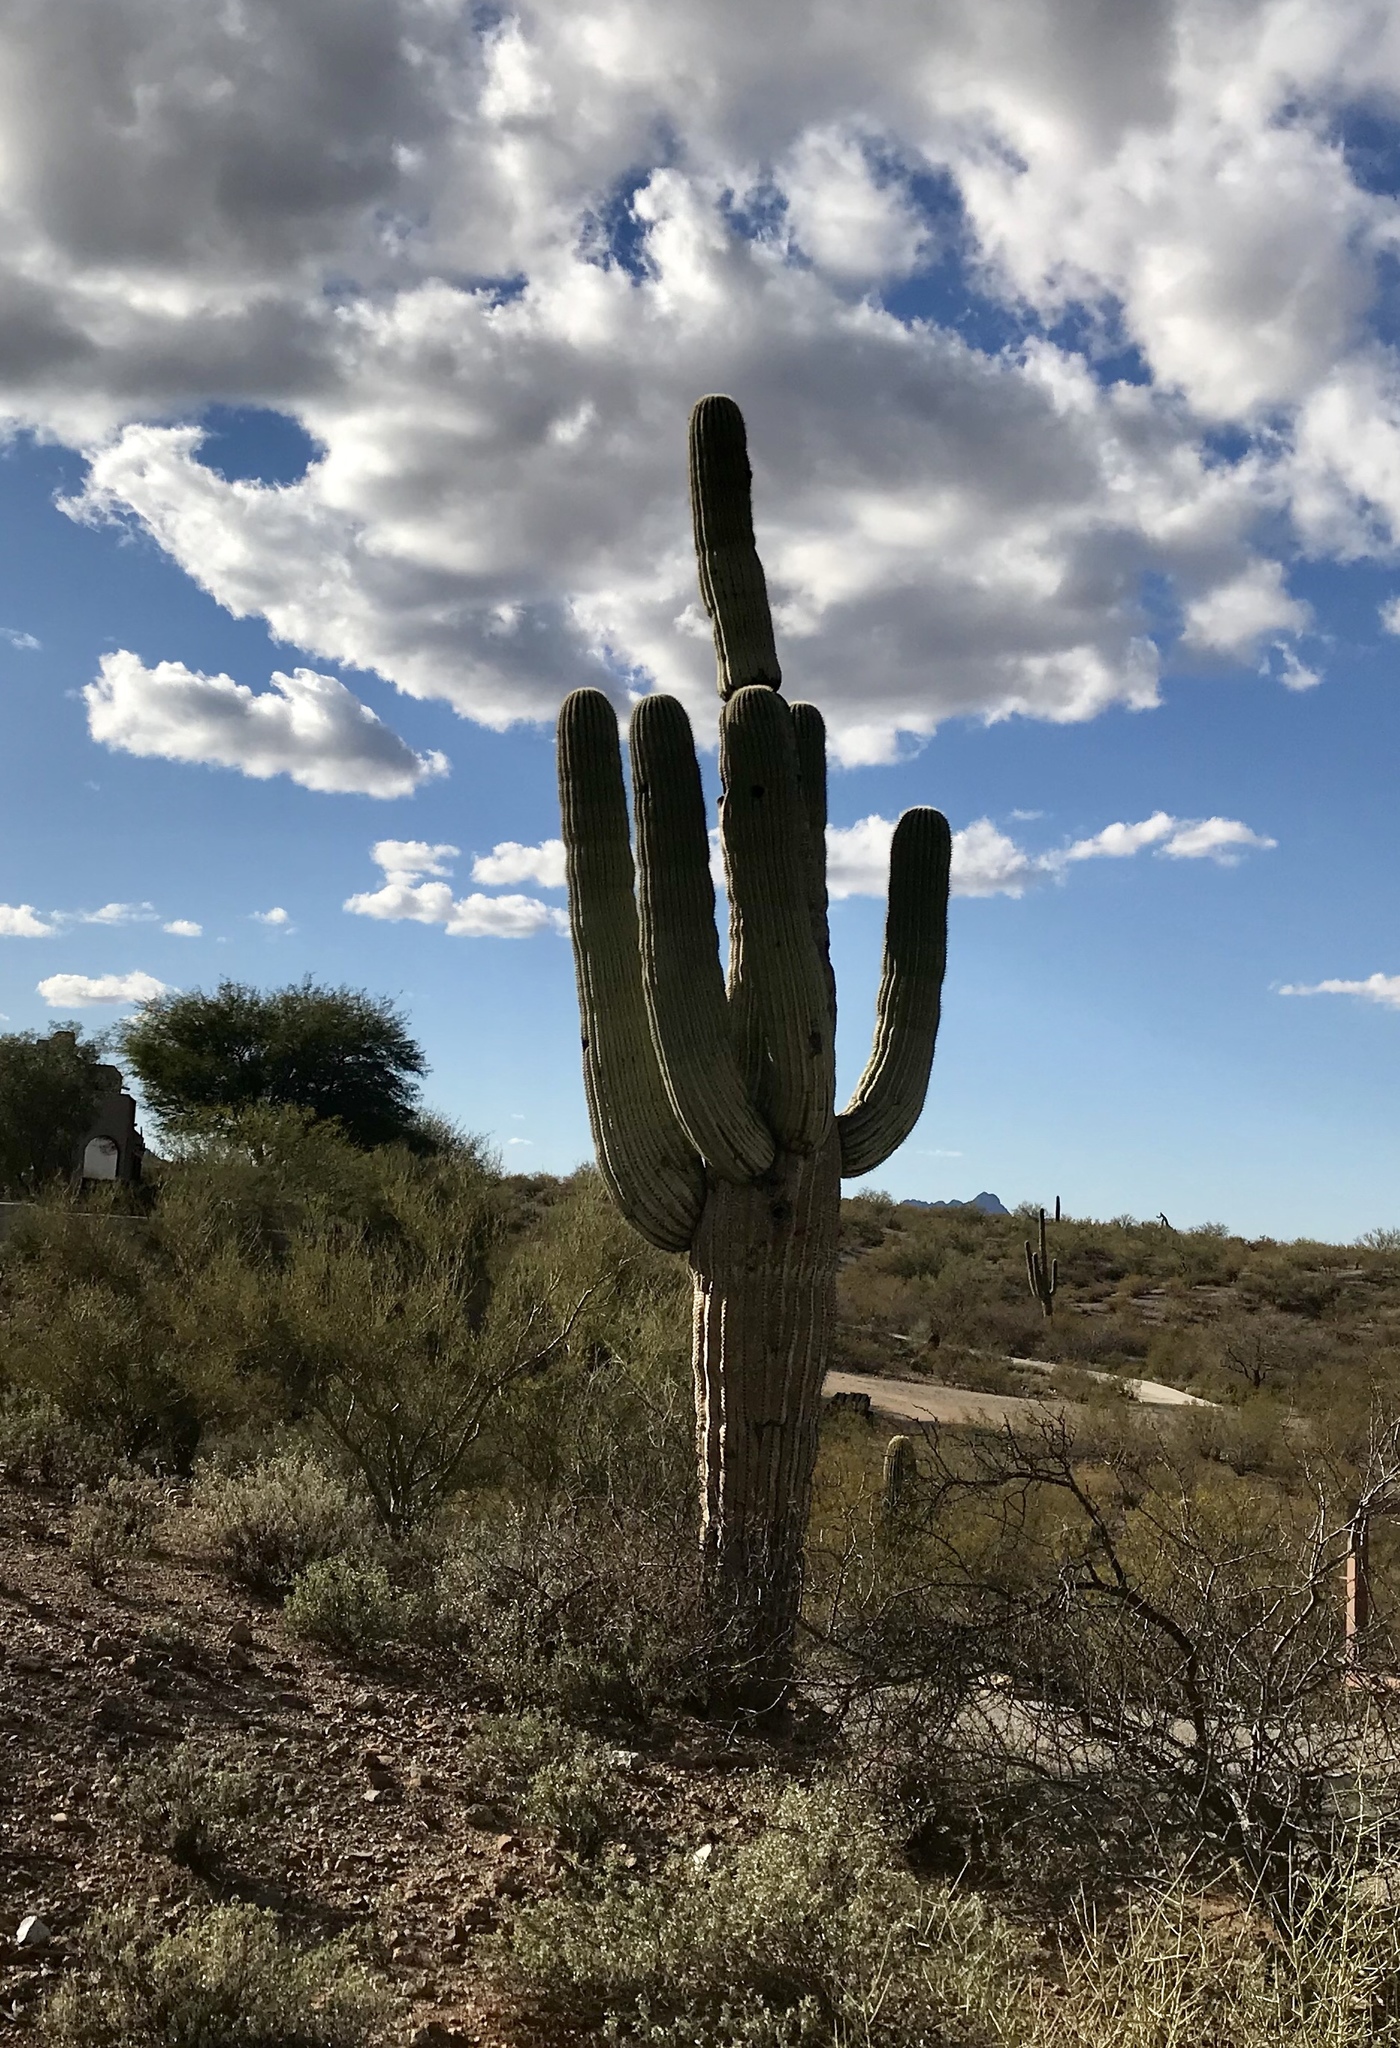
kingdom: Plantae
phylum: Tracheophyta
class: Magnoliopsida
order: Caryophyllales
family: Cactaceae
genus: Carnegiea
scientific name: Carnegiea gigantea
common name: Saguaro
